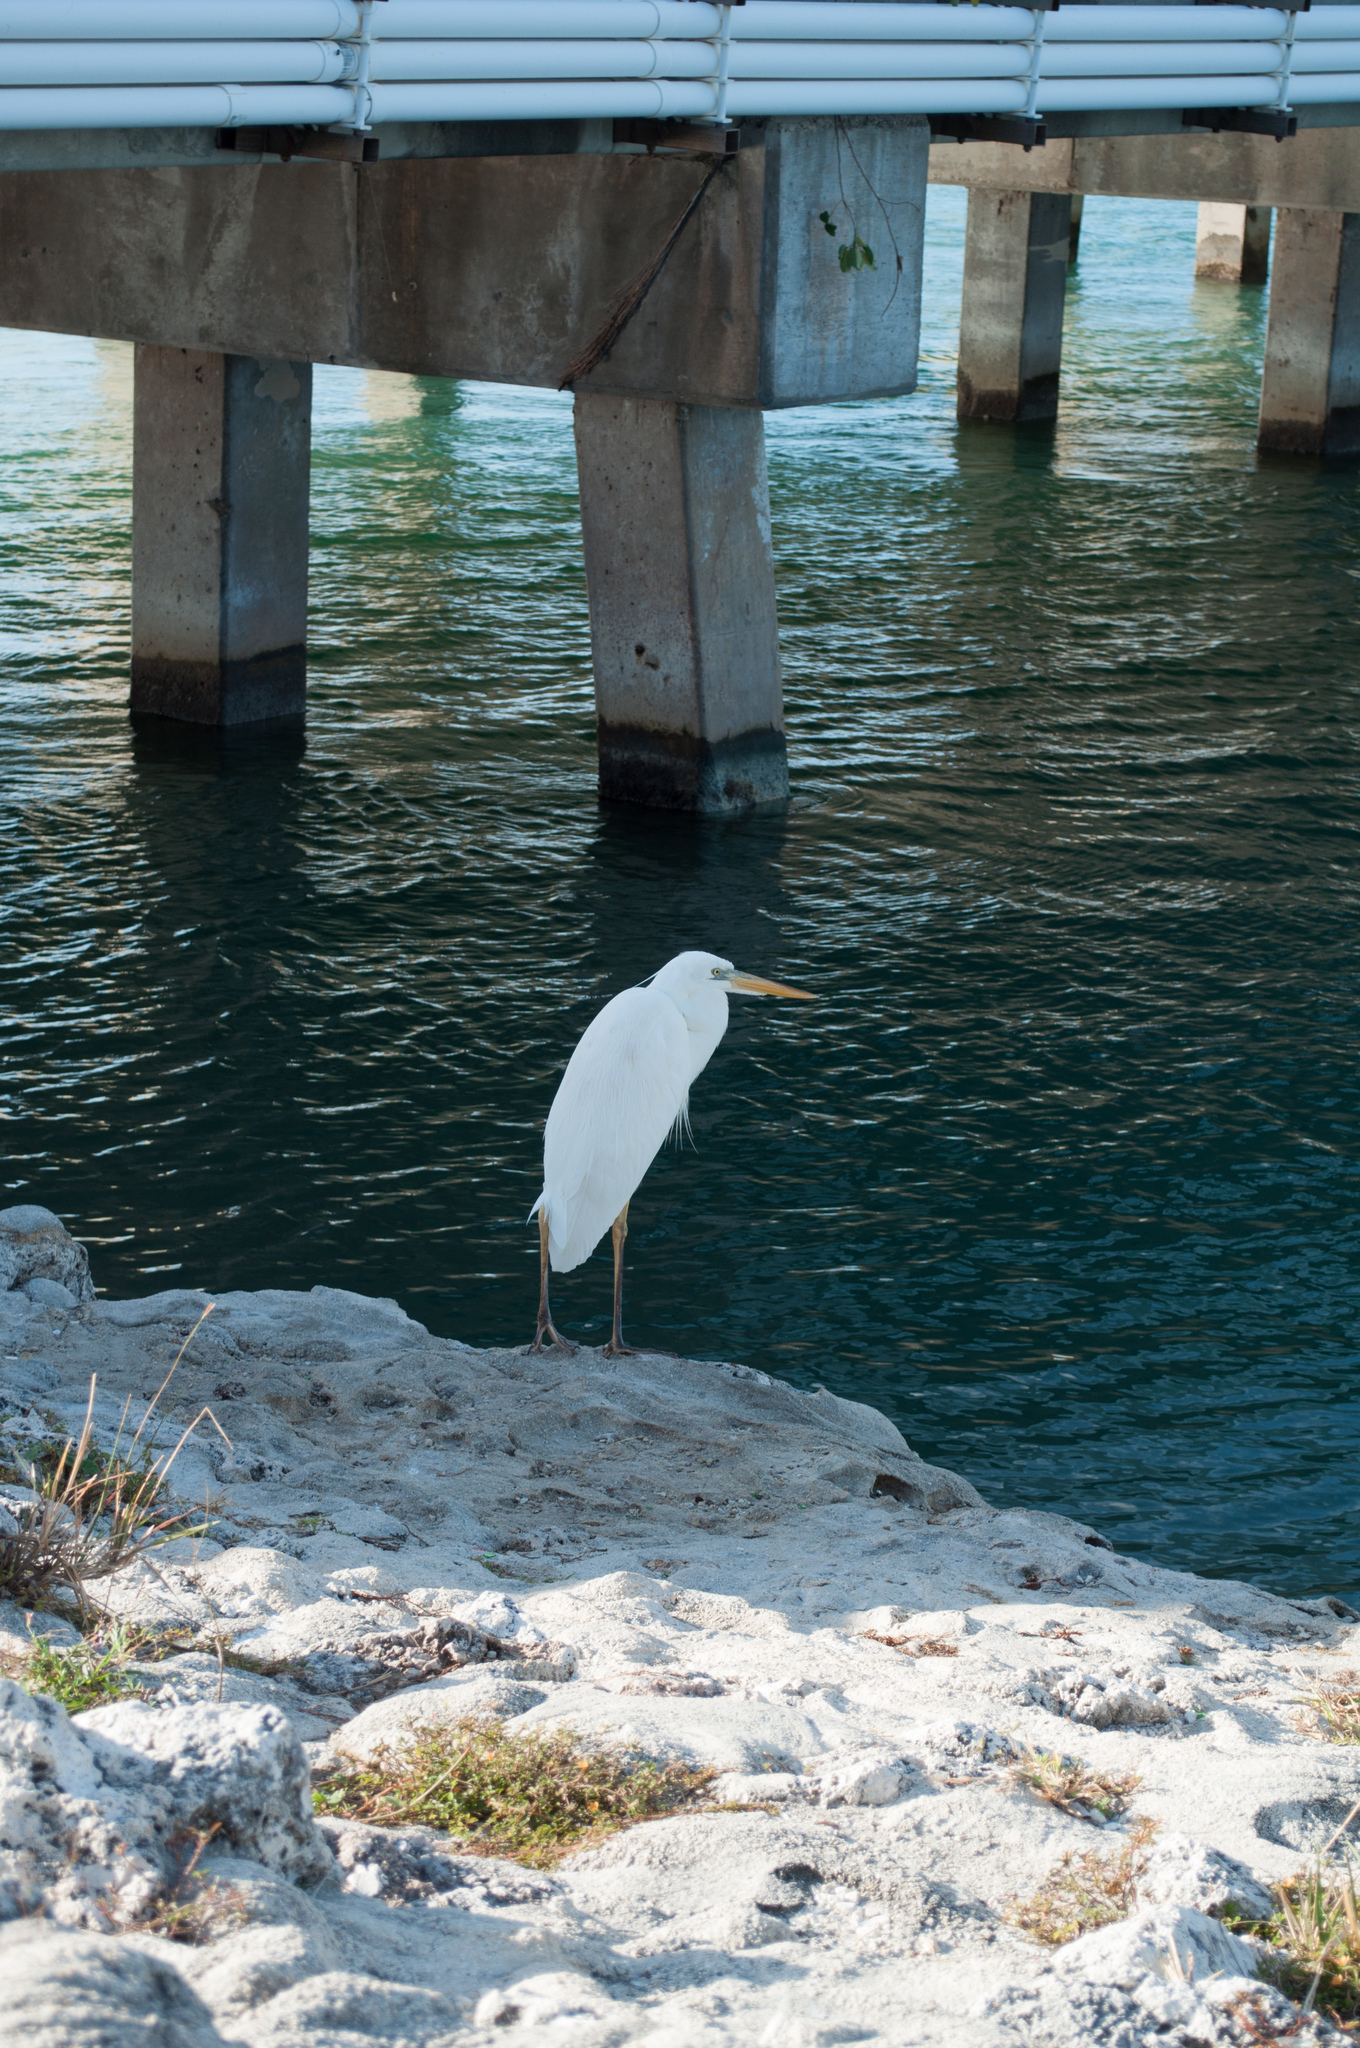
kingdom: Animalia
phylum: Chordata
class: Aves
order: Pelecaniformes
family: Ardeidae
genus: Ardea
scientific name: Ardea herodias
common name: Great blue heron
